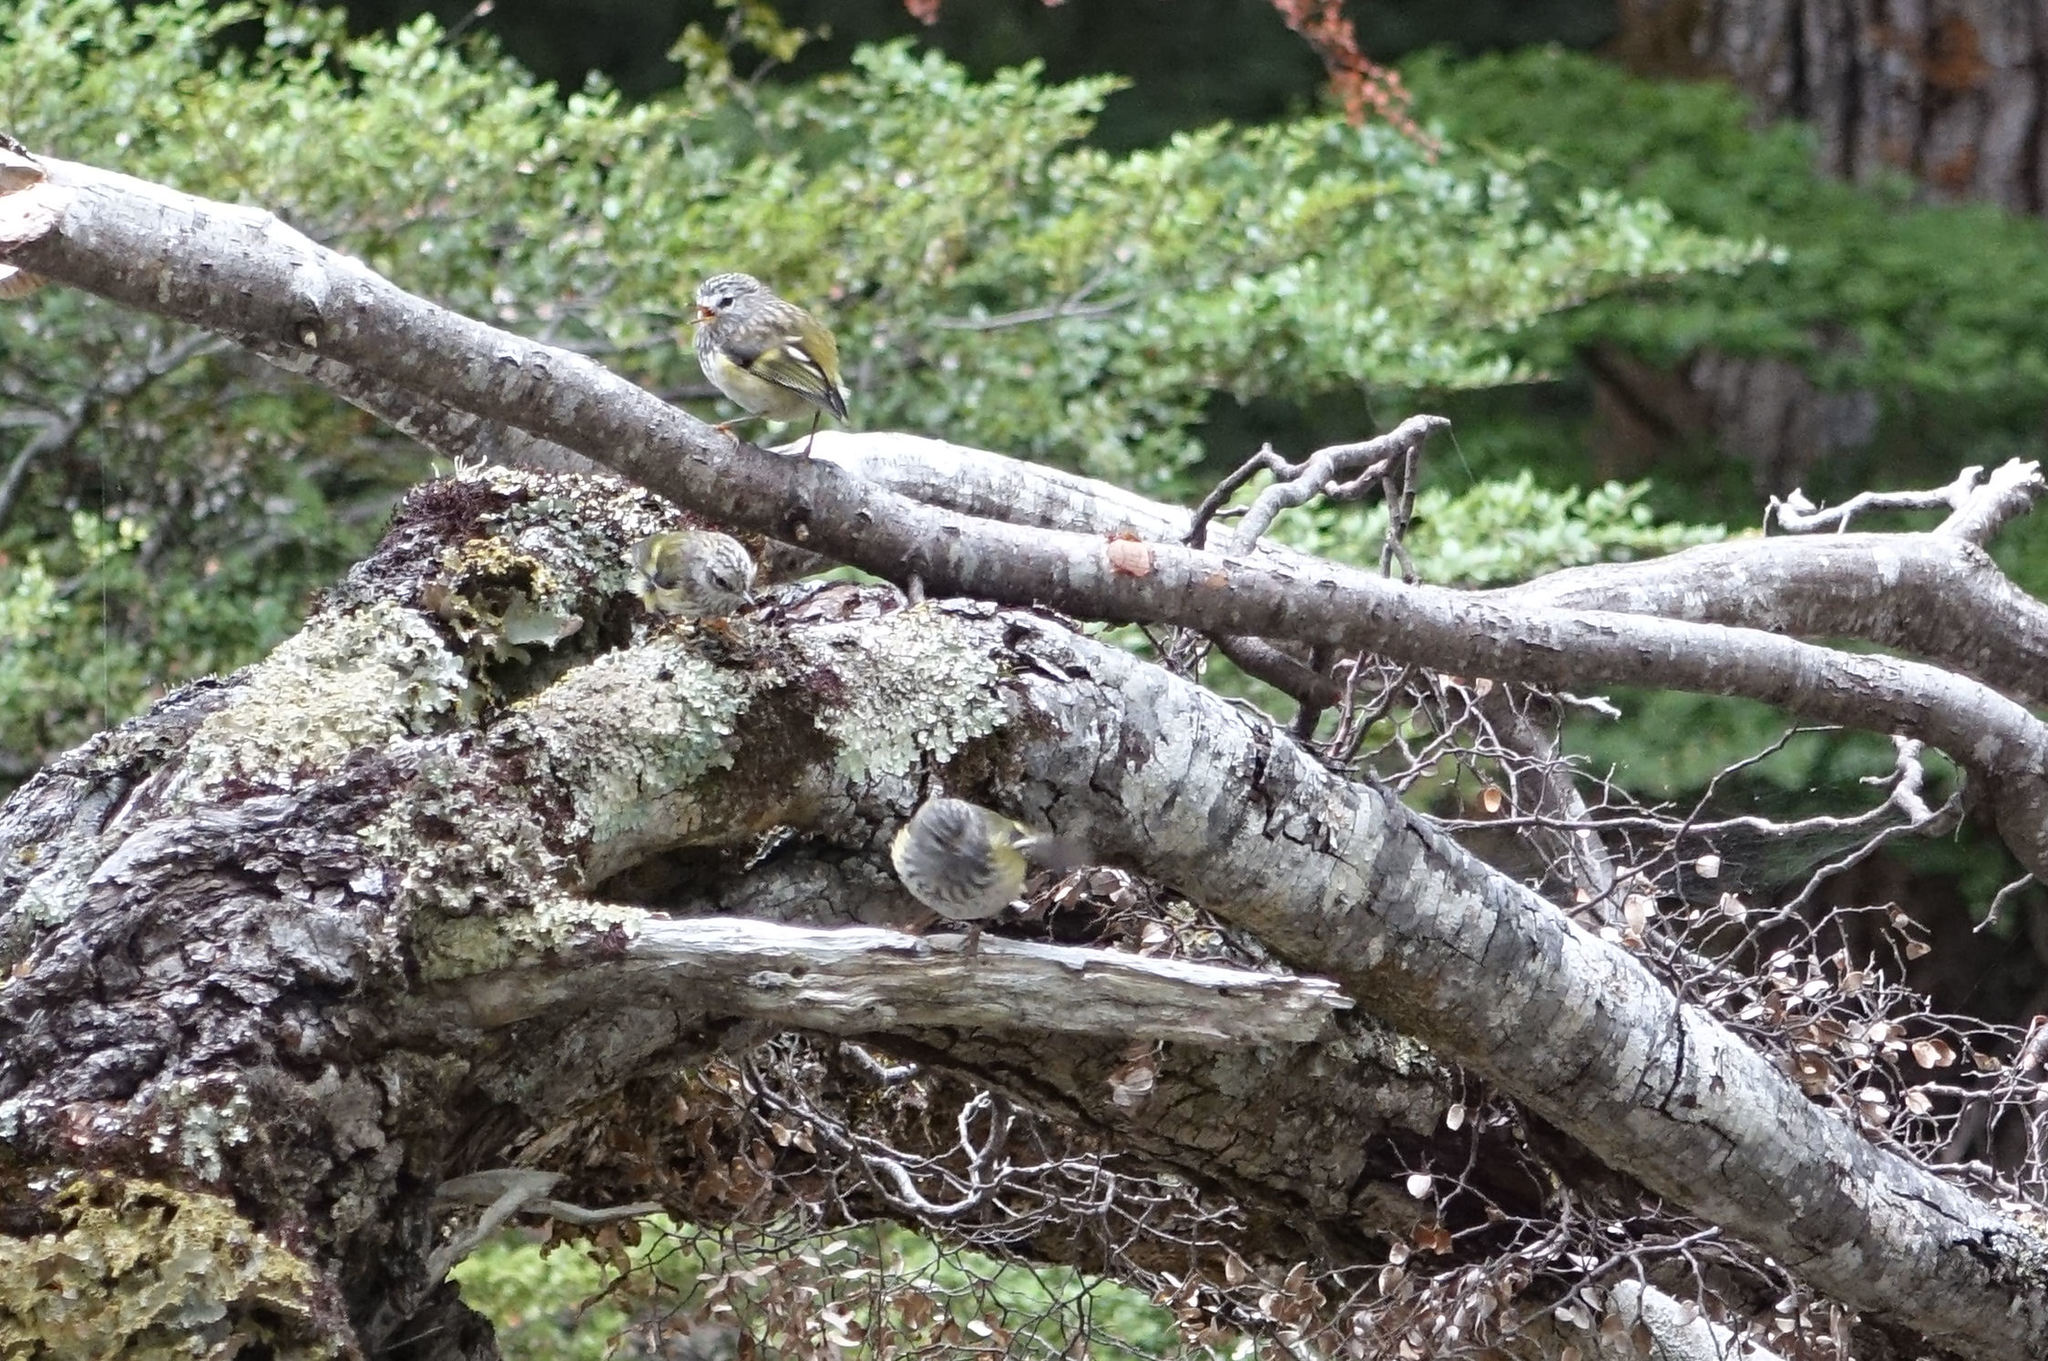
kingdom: Animalia
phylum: Chordata
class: Aves
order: Passeriformes
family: Acanthisittidae
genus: Acanthisitta
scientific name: Acanthisitta chloris
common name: Rifleman
